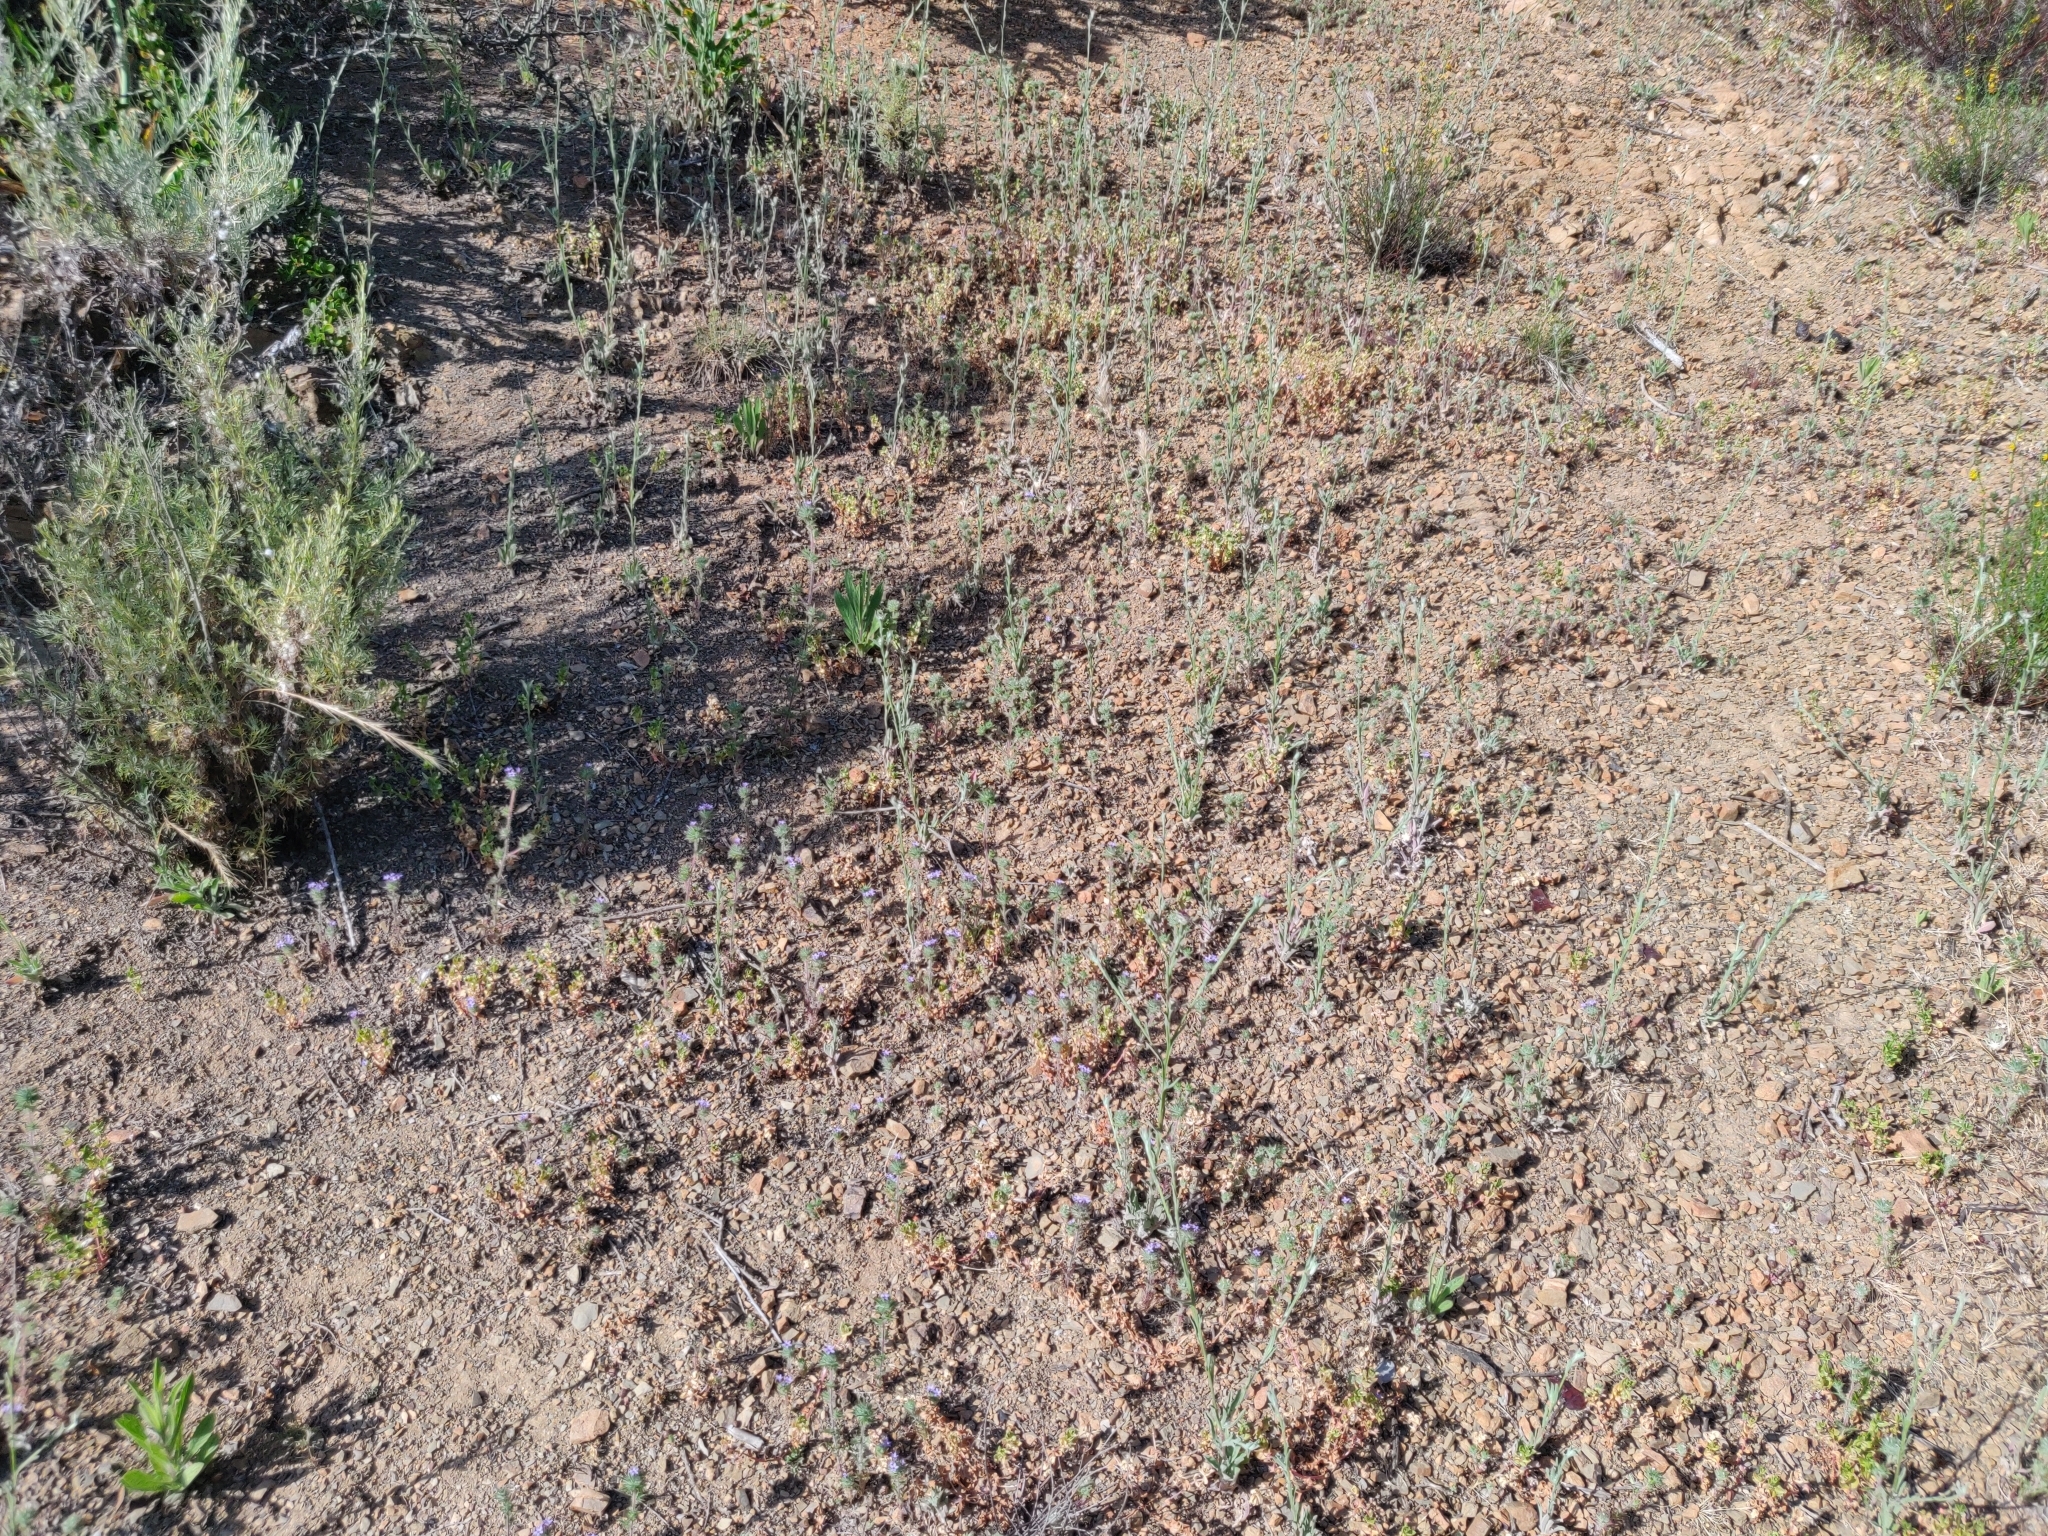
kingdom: Plantae
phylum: Tracheophyta
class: Magnoliopsida
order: Ericales
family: Polemoniaceae
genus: Navarretia
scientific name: Navarretia squarrosa
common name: Skunkweed
